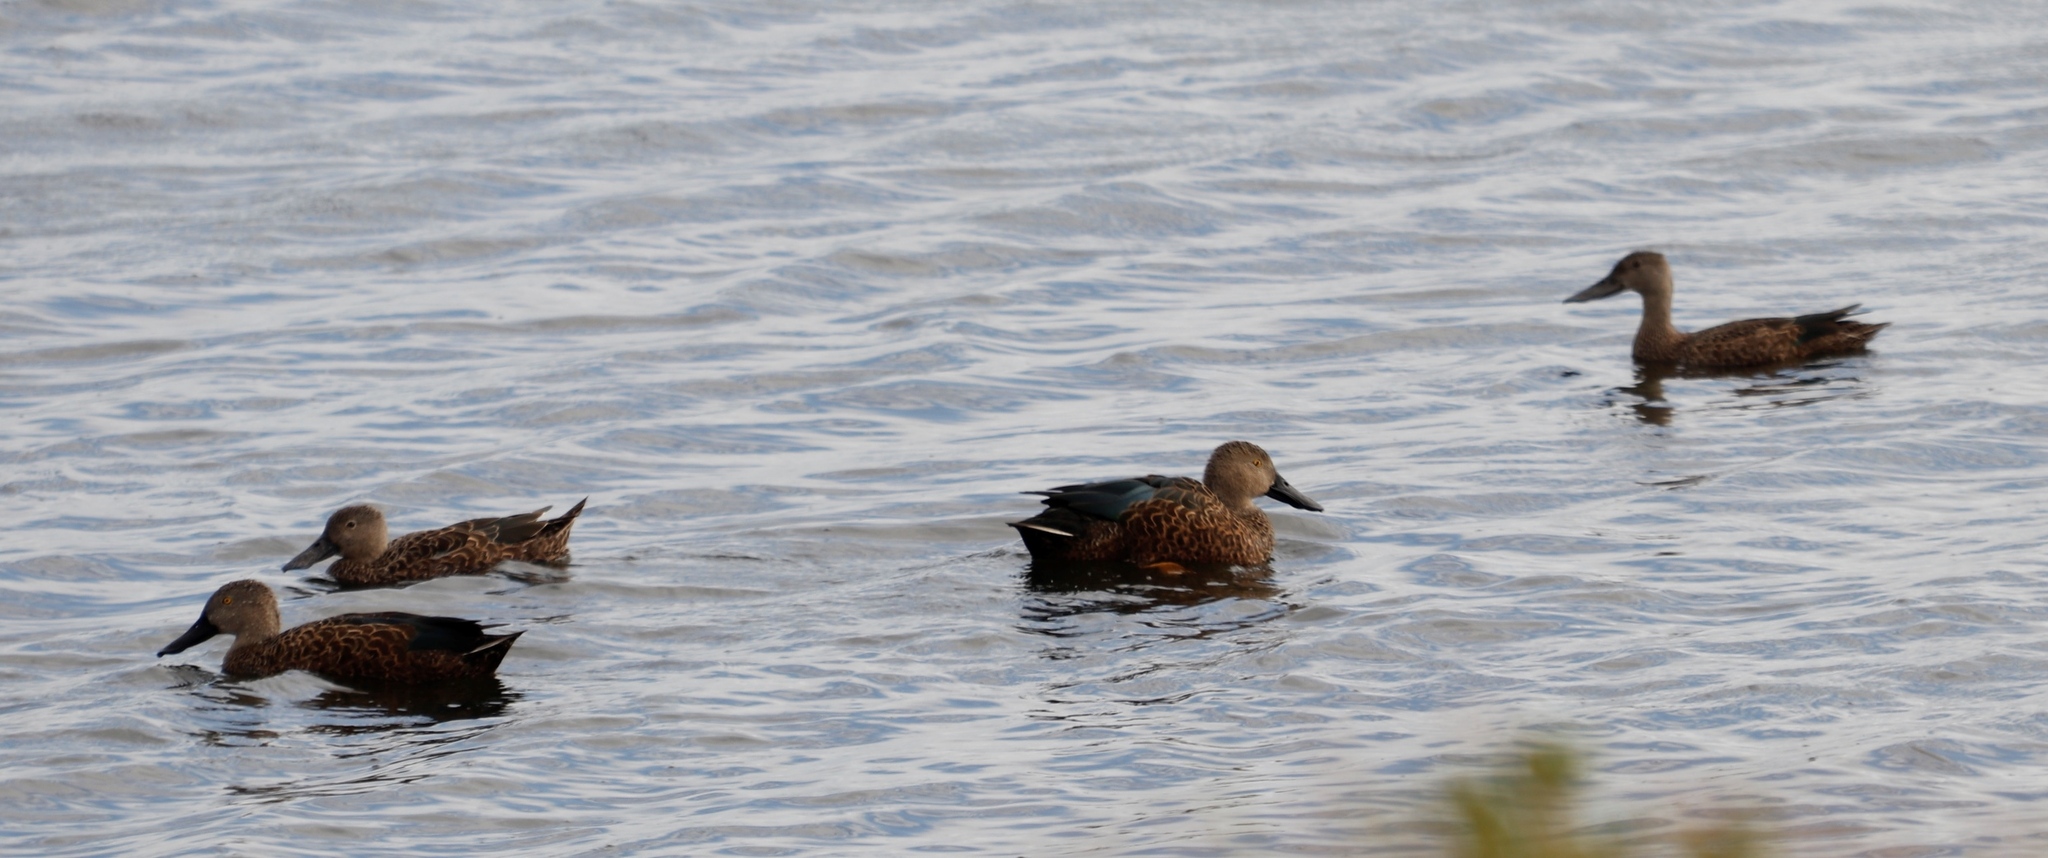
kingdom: Animalia
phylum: Chordata
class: Aves
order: Anseriformes
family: Anatidae
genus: Spatula
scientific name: Spatula smithii
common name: Cape shoveler
